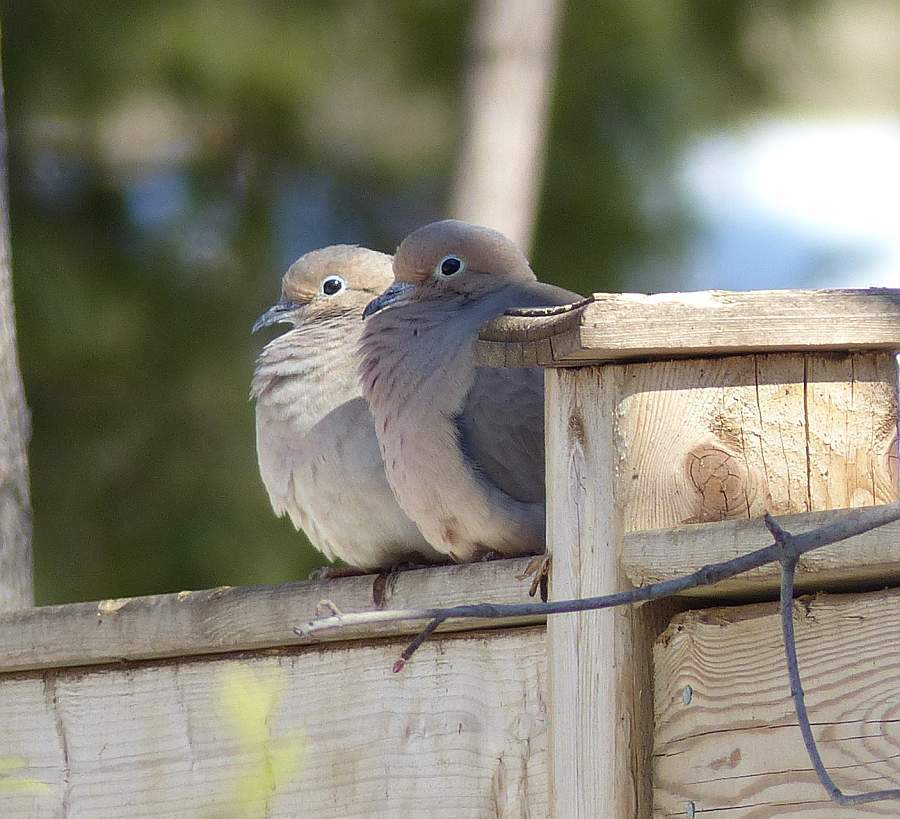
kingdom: Animalia
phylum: Chordata
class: Aves
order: Columbiformes
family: Columbidae
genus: Zenaida
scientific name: Zenaida macroura
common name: Mourning dove
